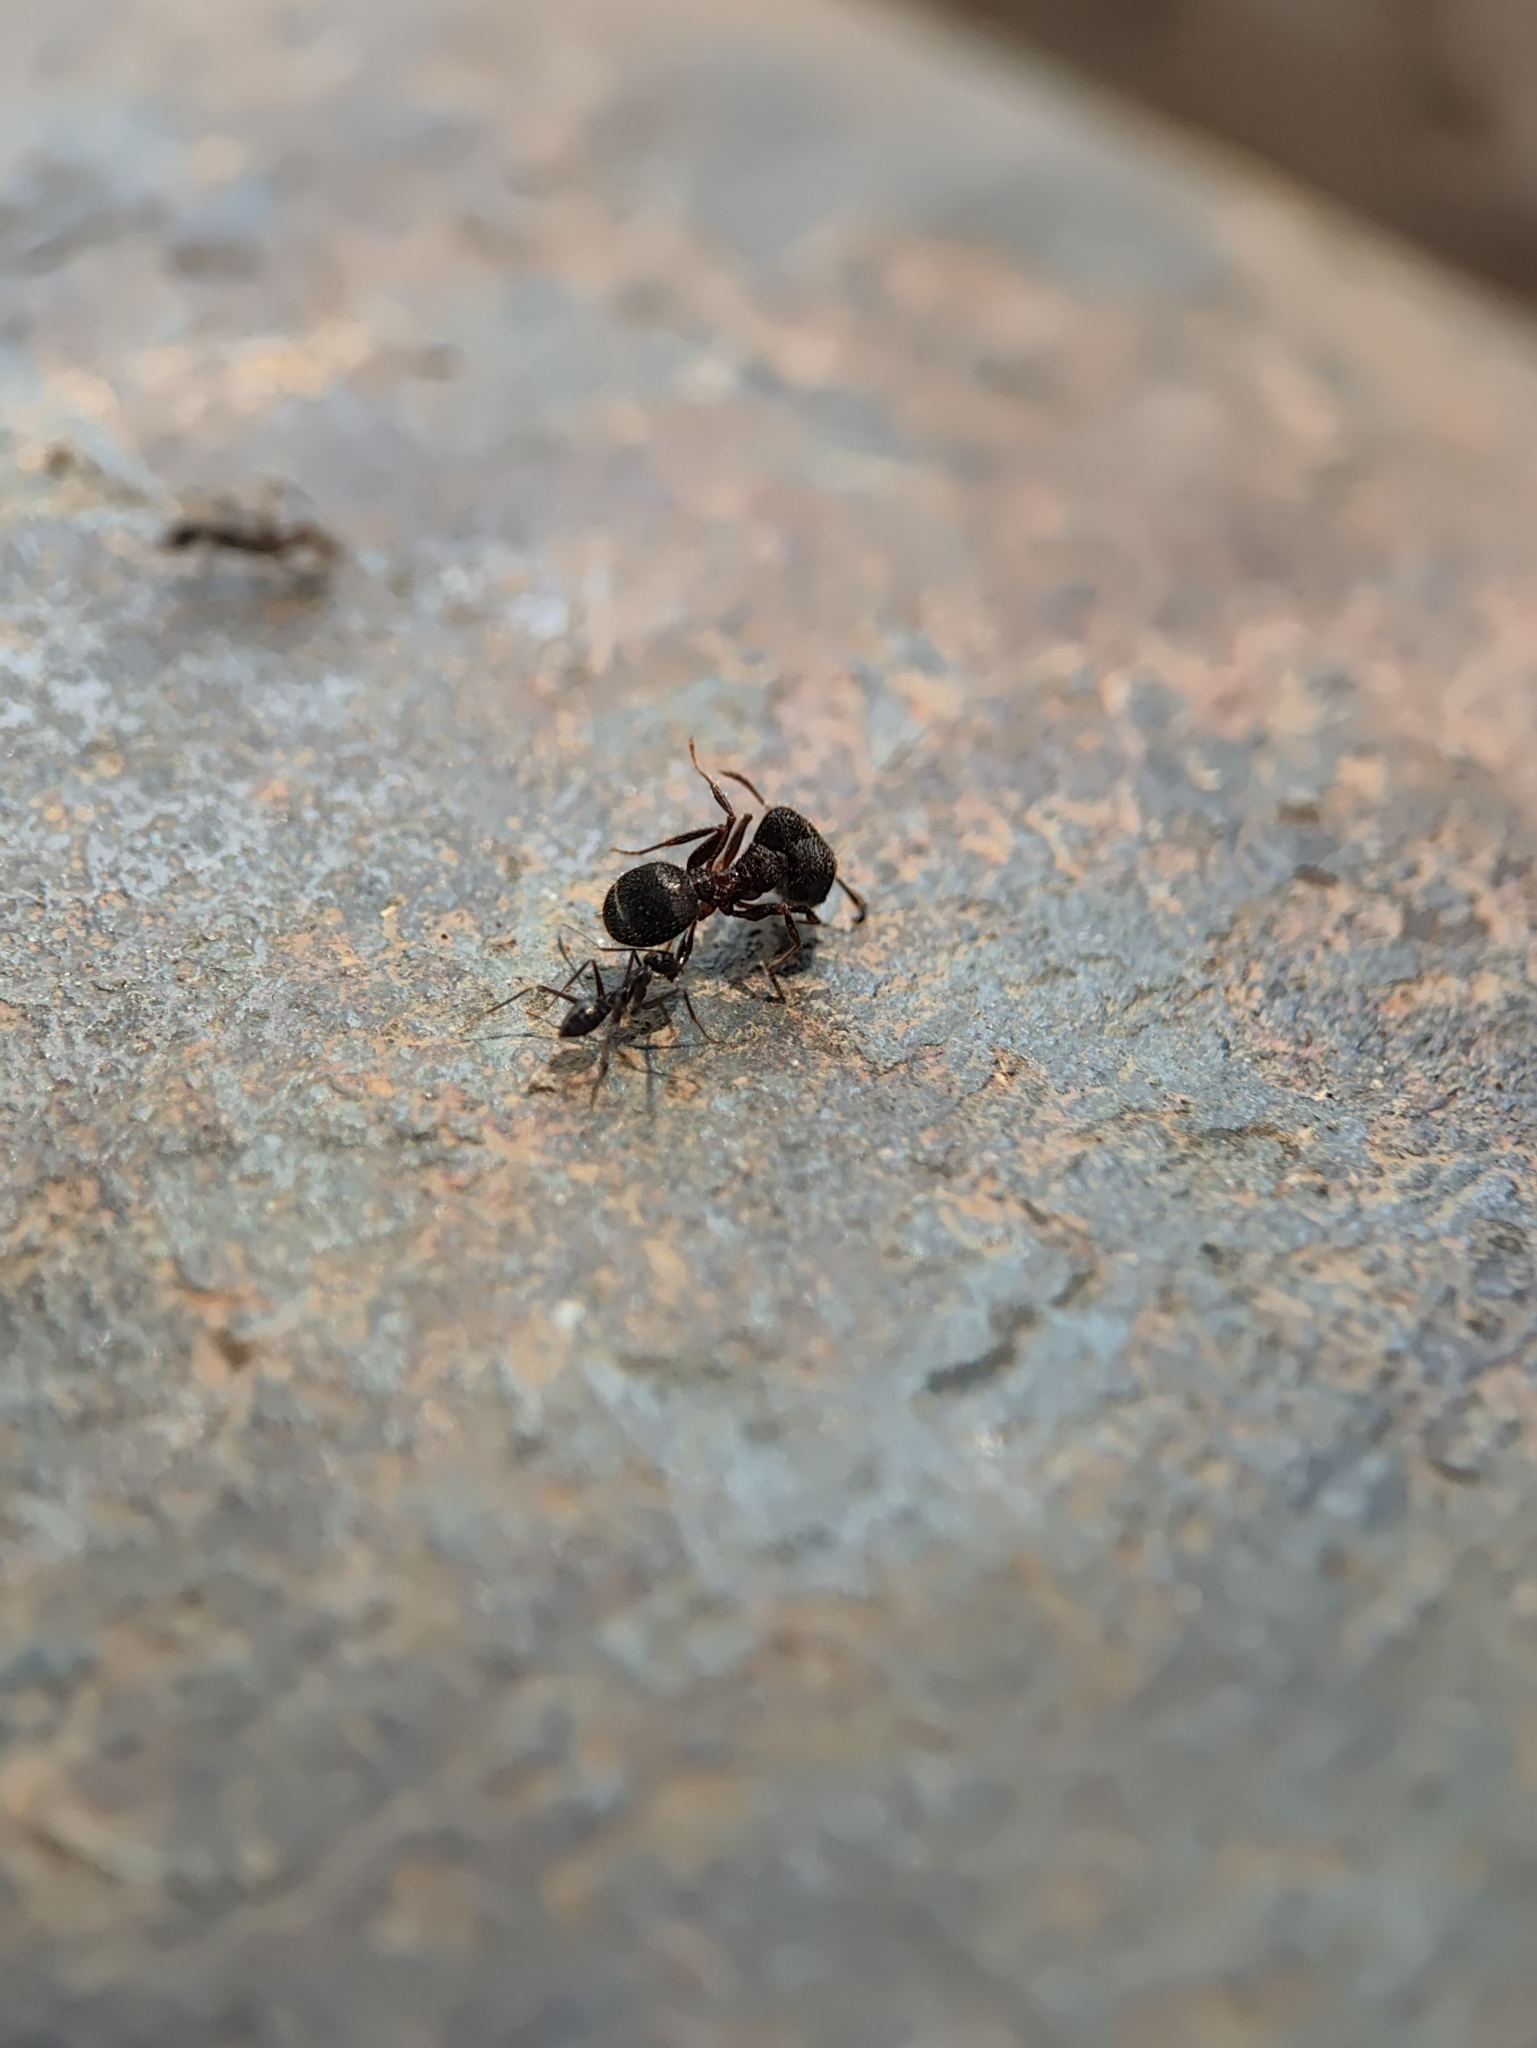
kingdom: Animalia
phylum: Arthropoda
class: Insecta
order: Hymenoptera
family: Formicidae
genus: Paratrechina
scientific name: Paratrechina longicornis
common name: Longhorned crazy ant
